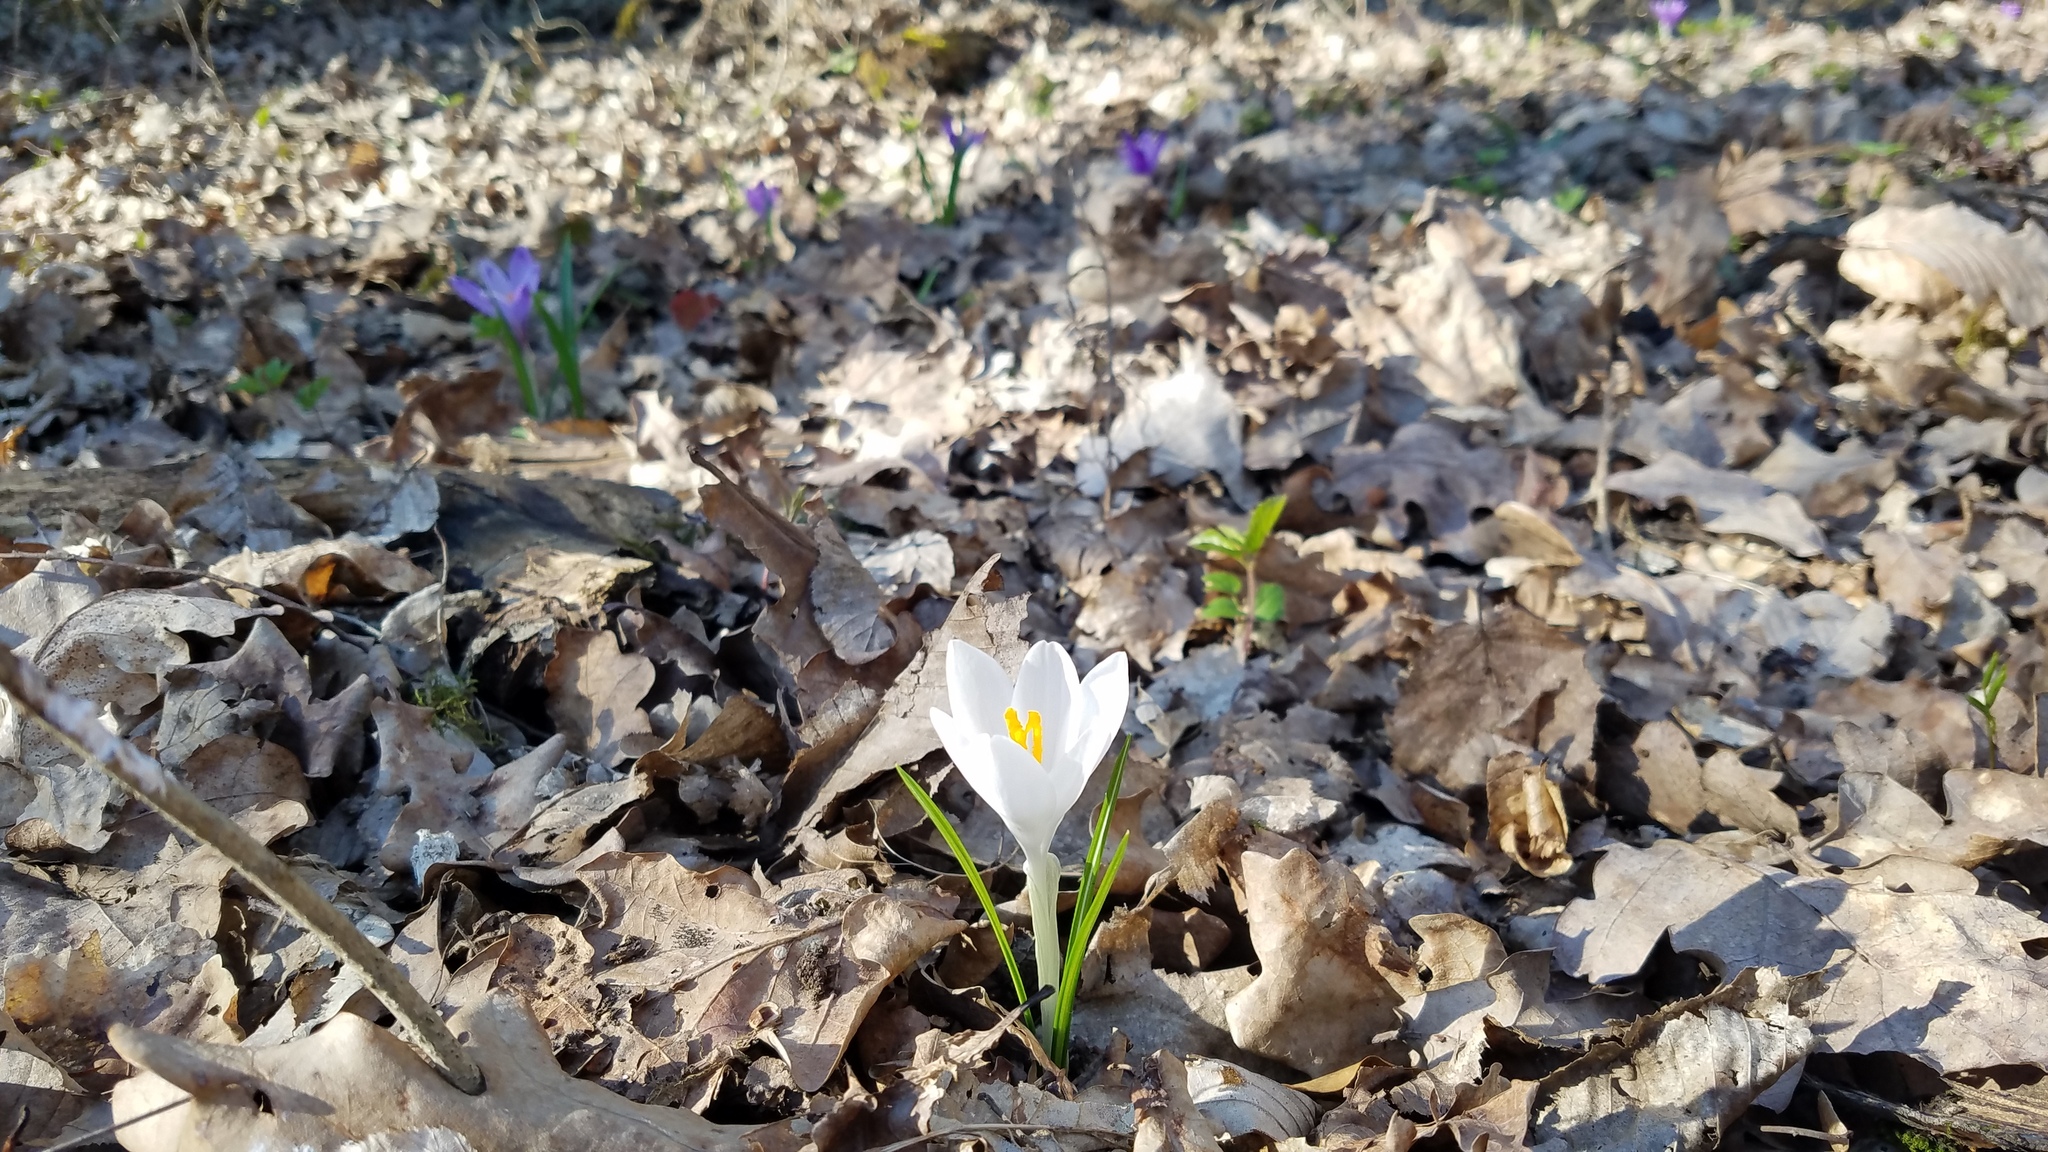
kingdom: Plantae
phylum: Tracheophyta
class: Liliopsida
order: Asparagales
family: Iridaceae
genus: Crocus
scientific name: Crocus heuffelianus
